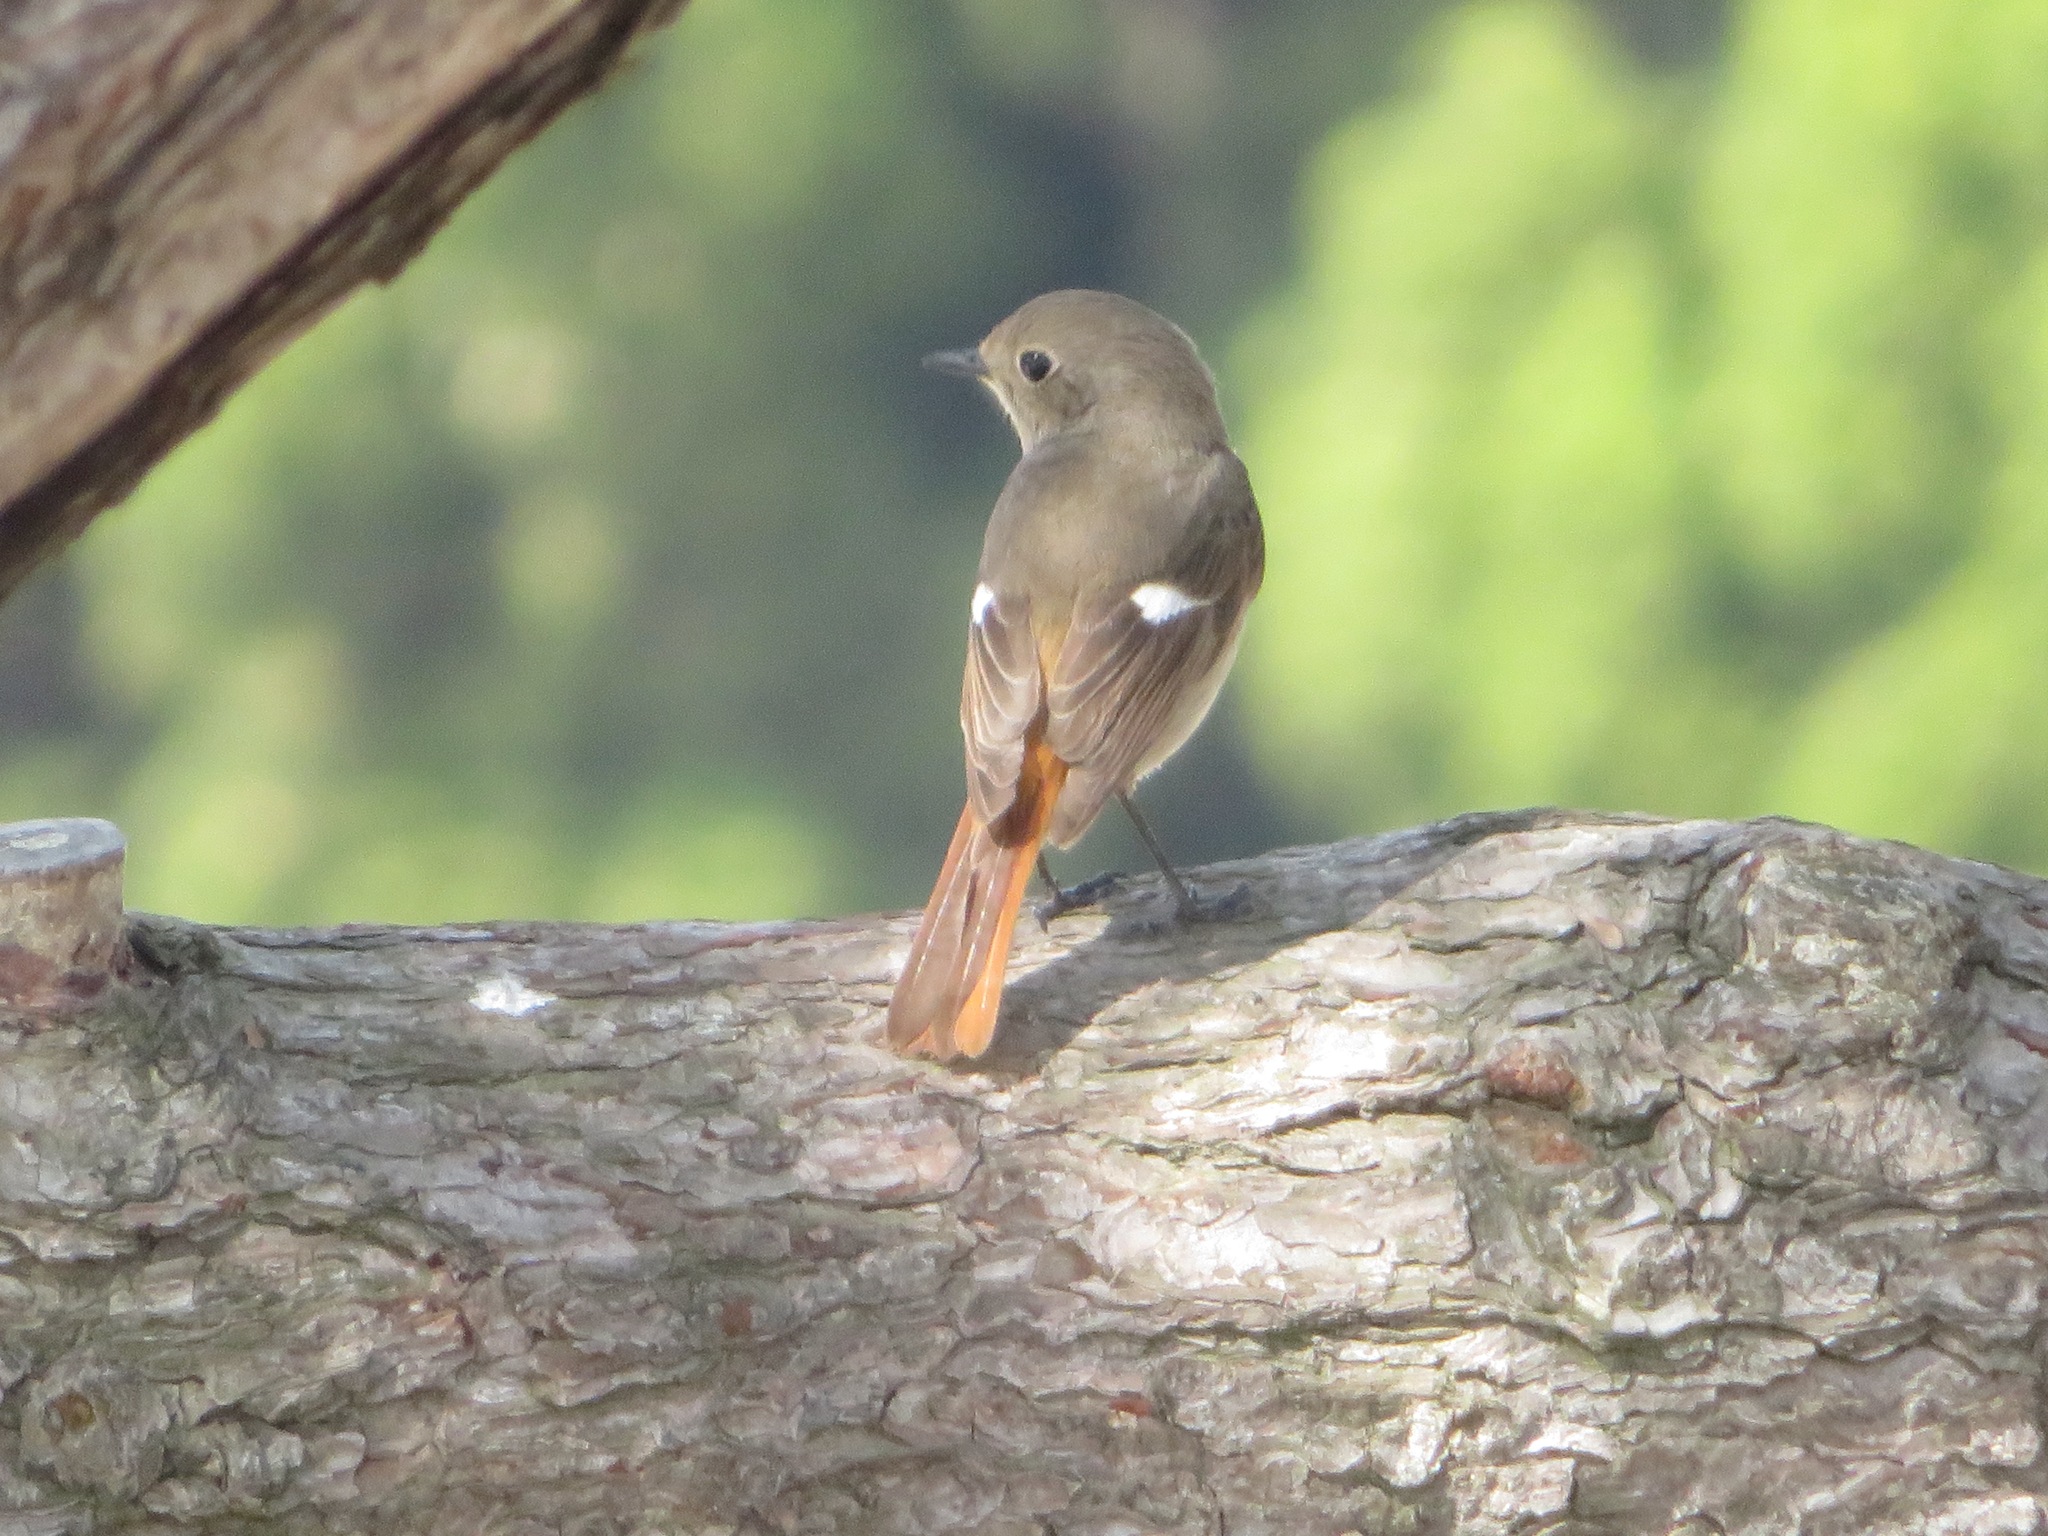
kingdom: Animalia
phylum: Chordata
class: Aves
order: Passeriformes
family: Muscicapidae
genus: Phoenicurus
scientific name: Phoenicurus auroreus
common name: Daurian redstart
